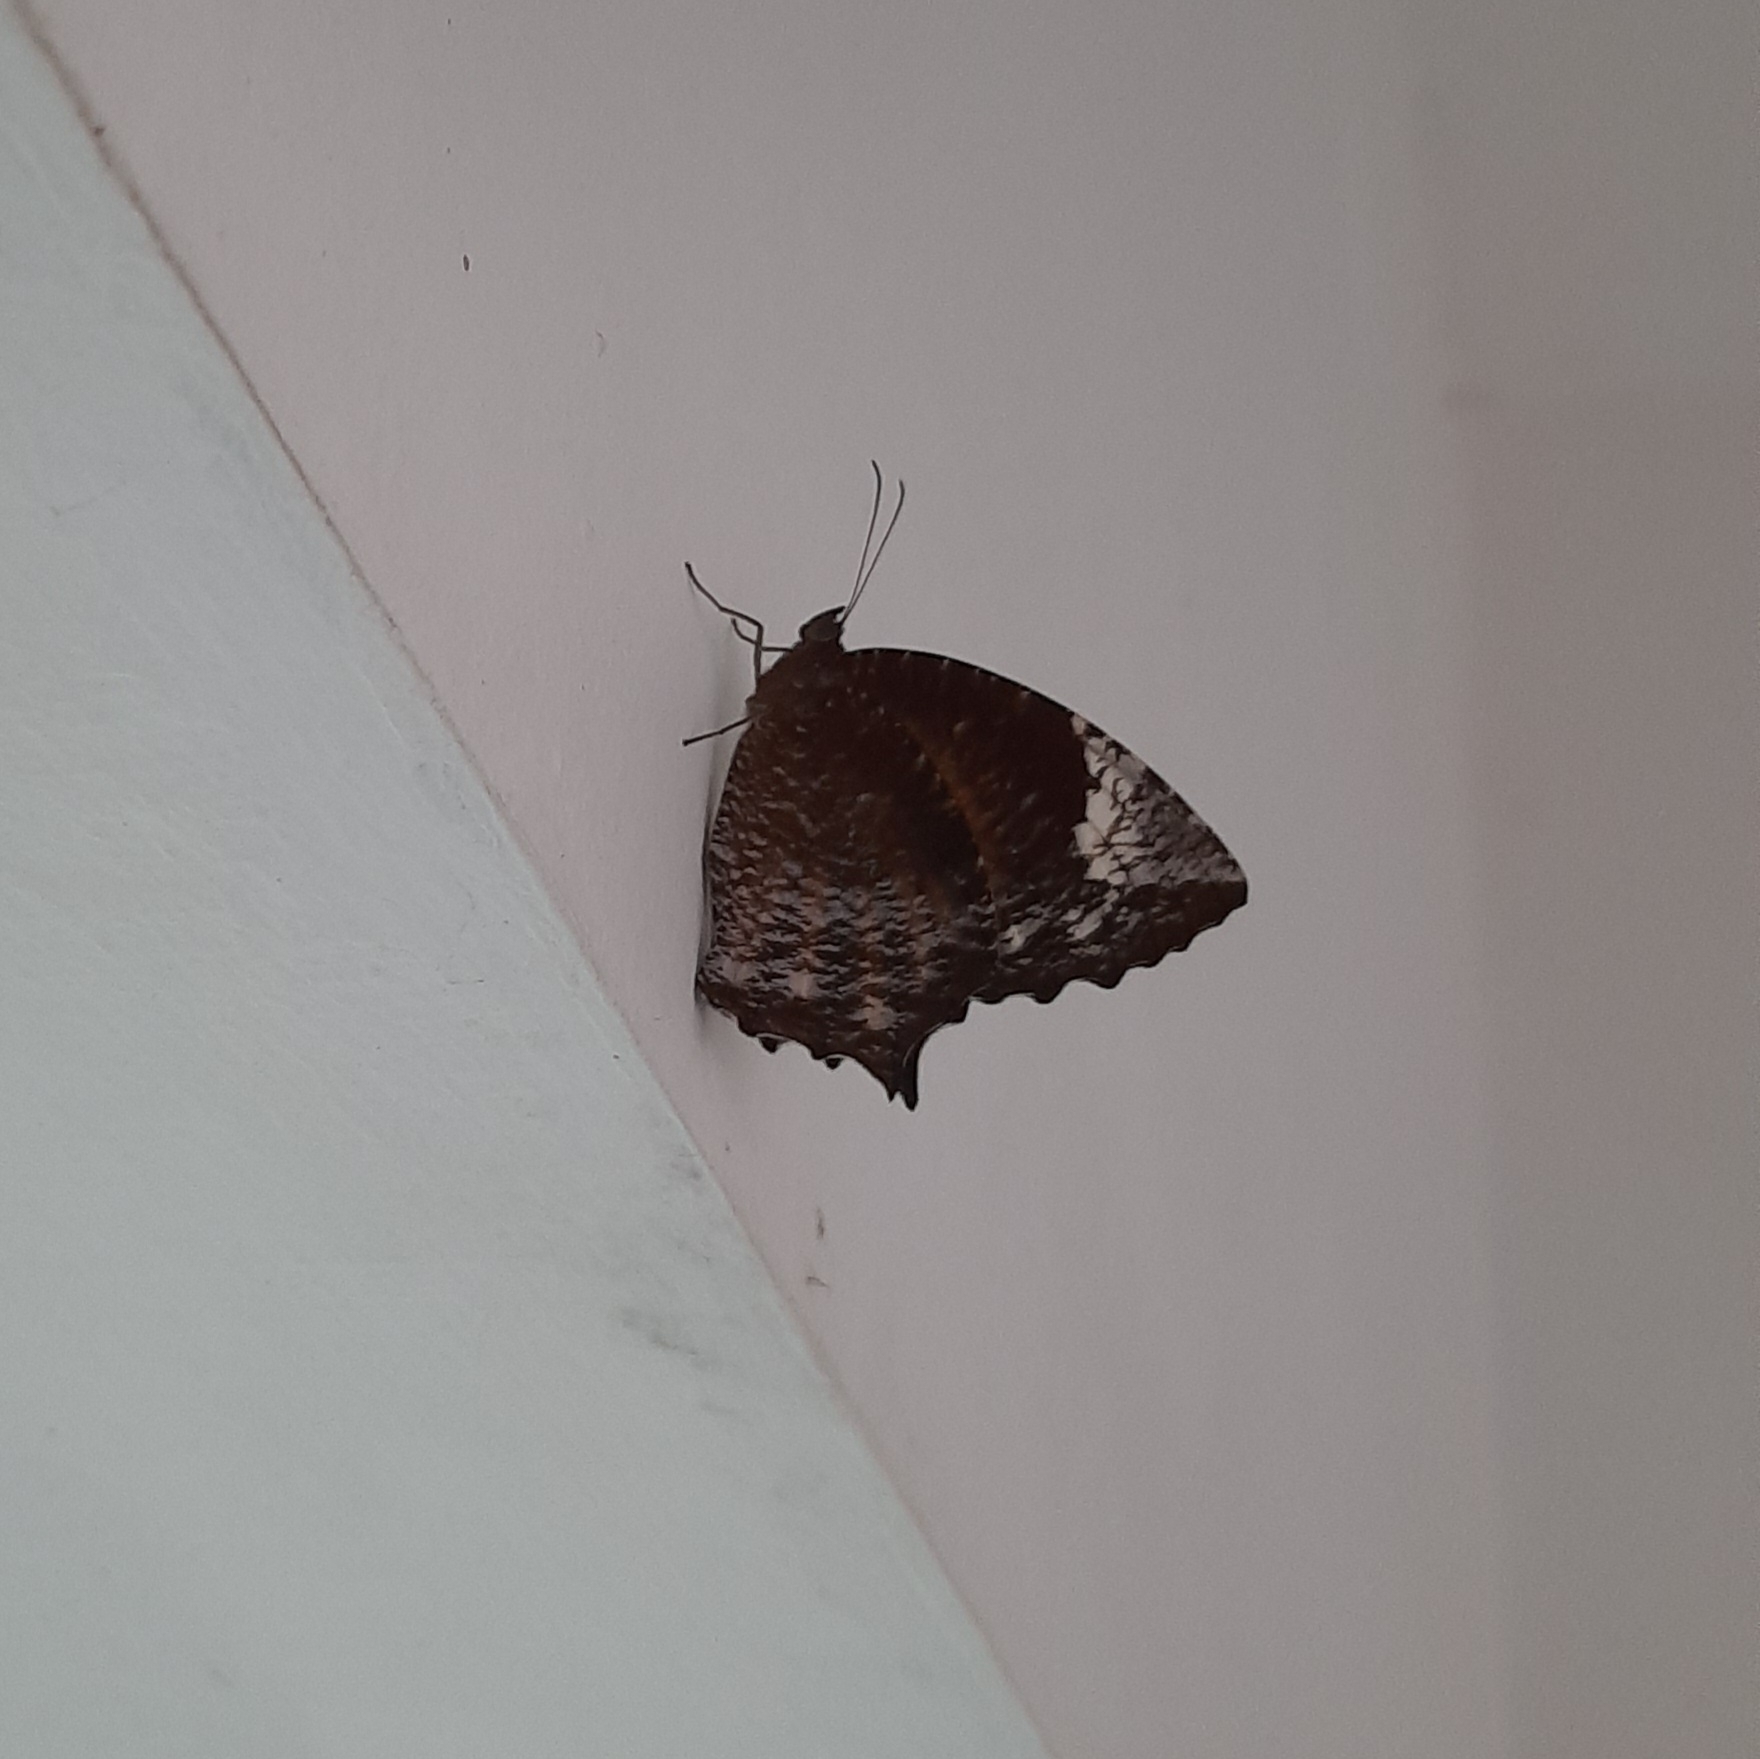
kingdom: Animalia
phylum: Arthropoda
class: Insecta
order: Lepidoptera
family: Nymphalidae
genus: Elymnias
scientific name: Elymnias caudata
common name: Tailed palmfly
